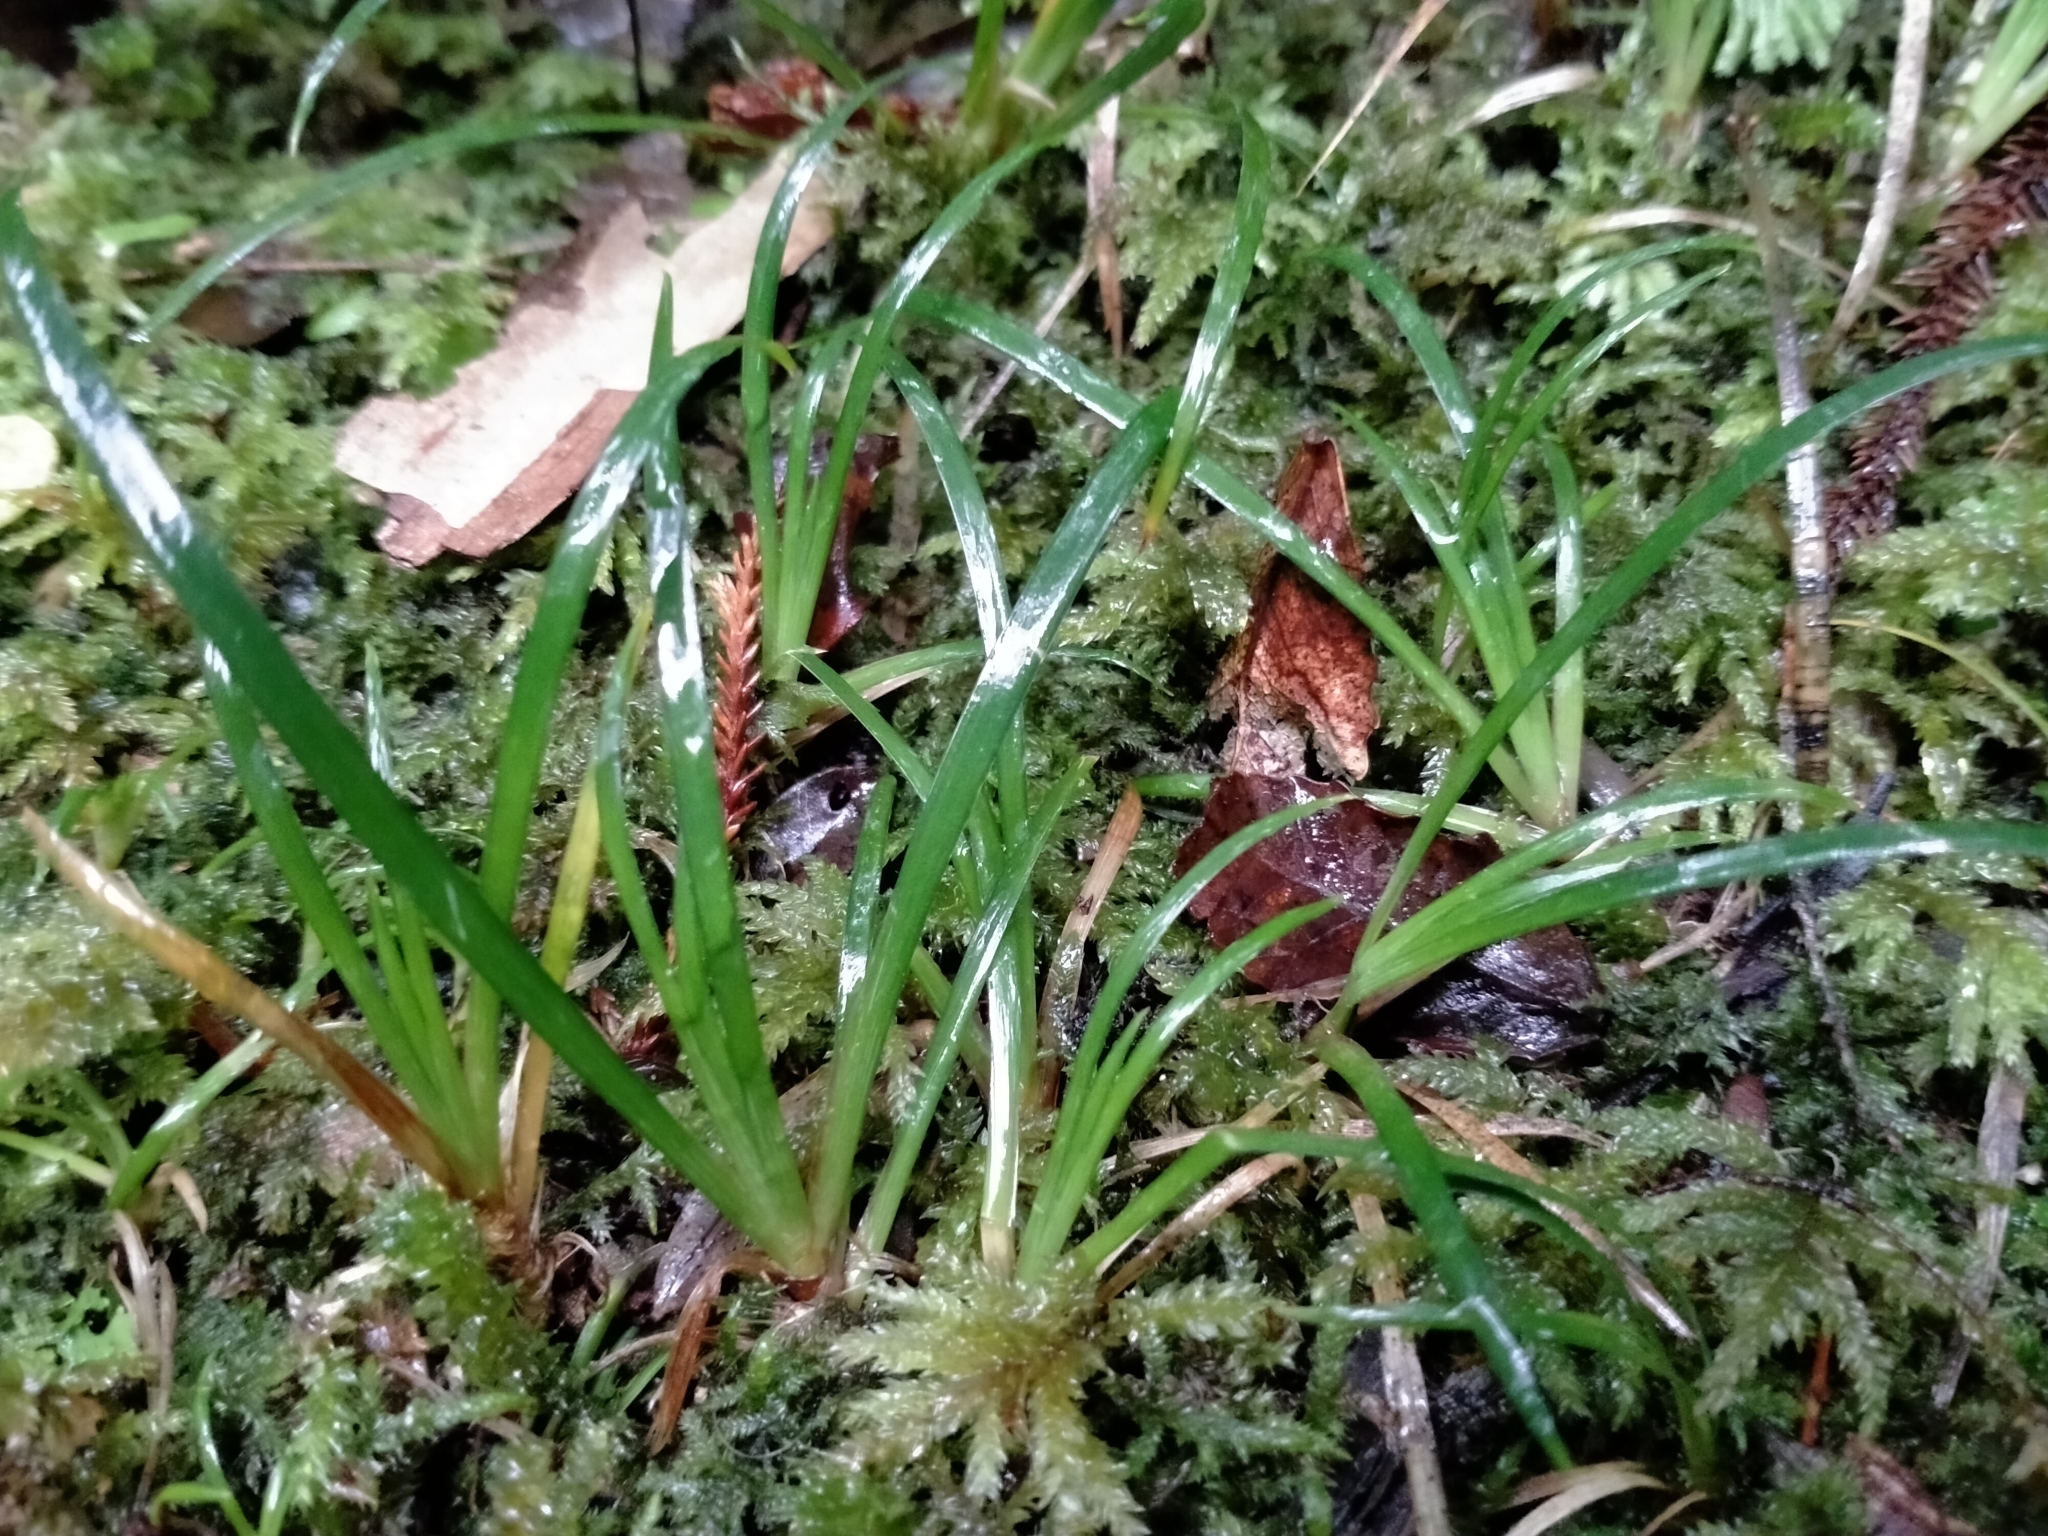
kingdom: Plantae
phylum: Tracheophyta
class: Liliopsida
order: Asparagales
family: Iridaceae
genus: Libertia
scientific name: Libertia micrantha
